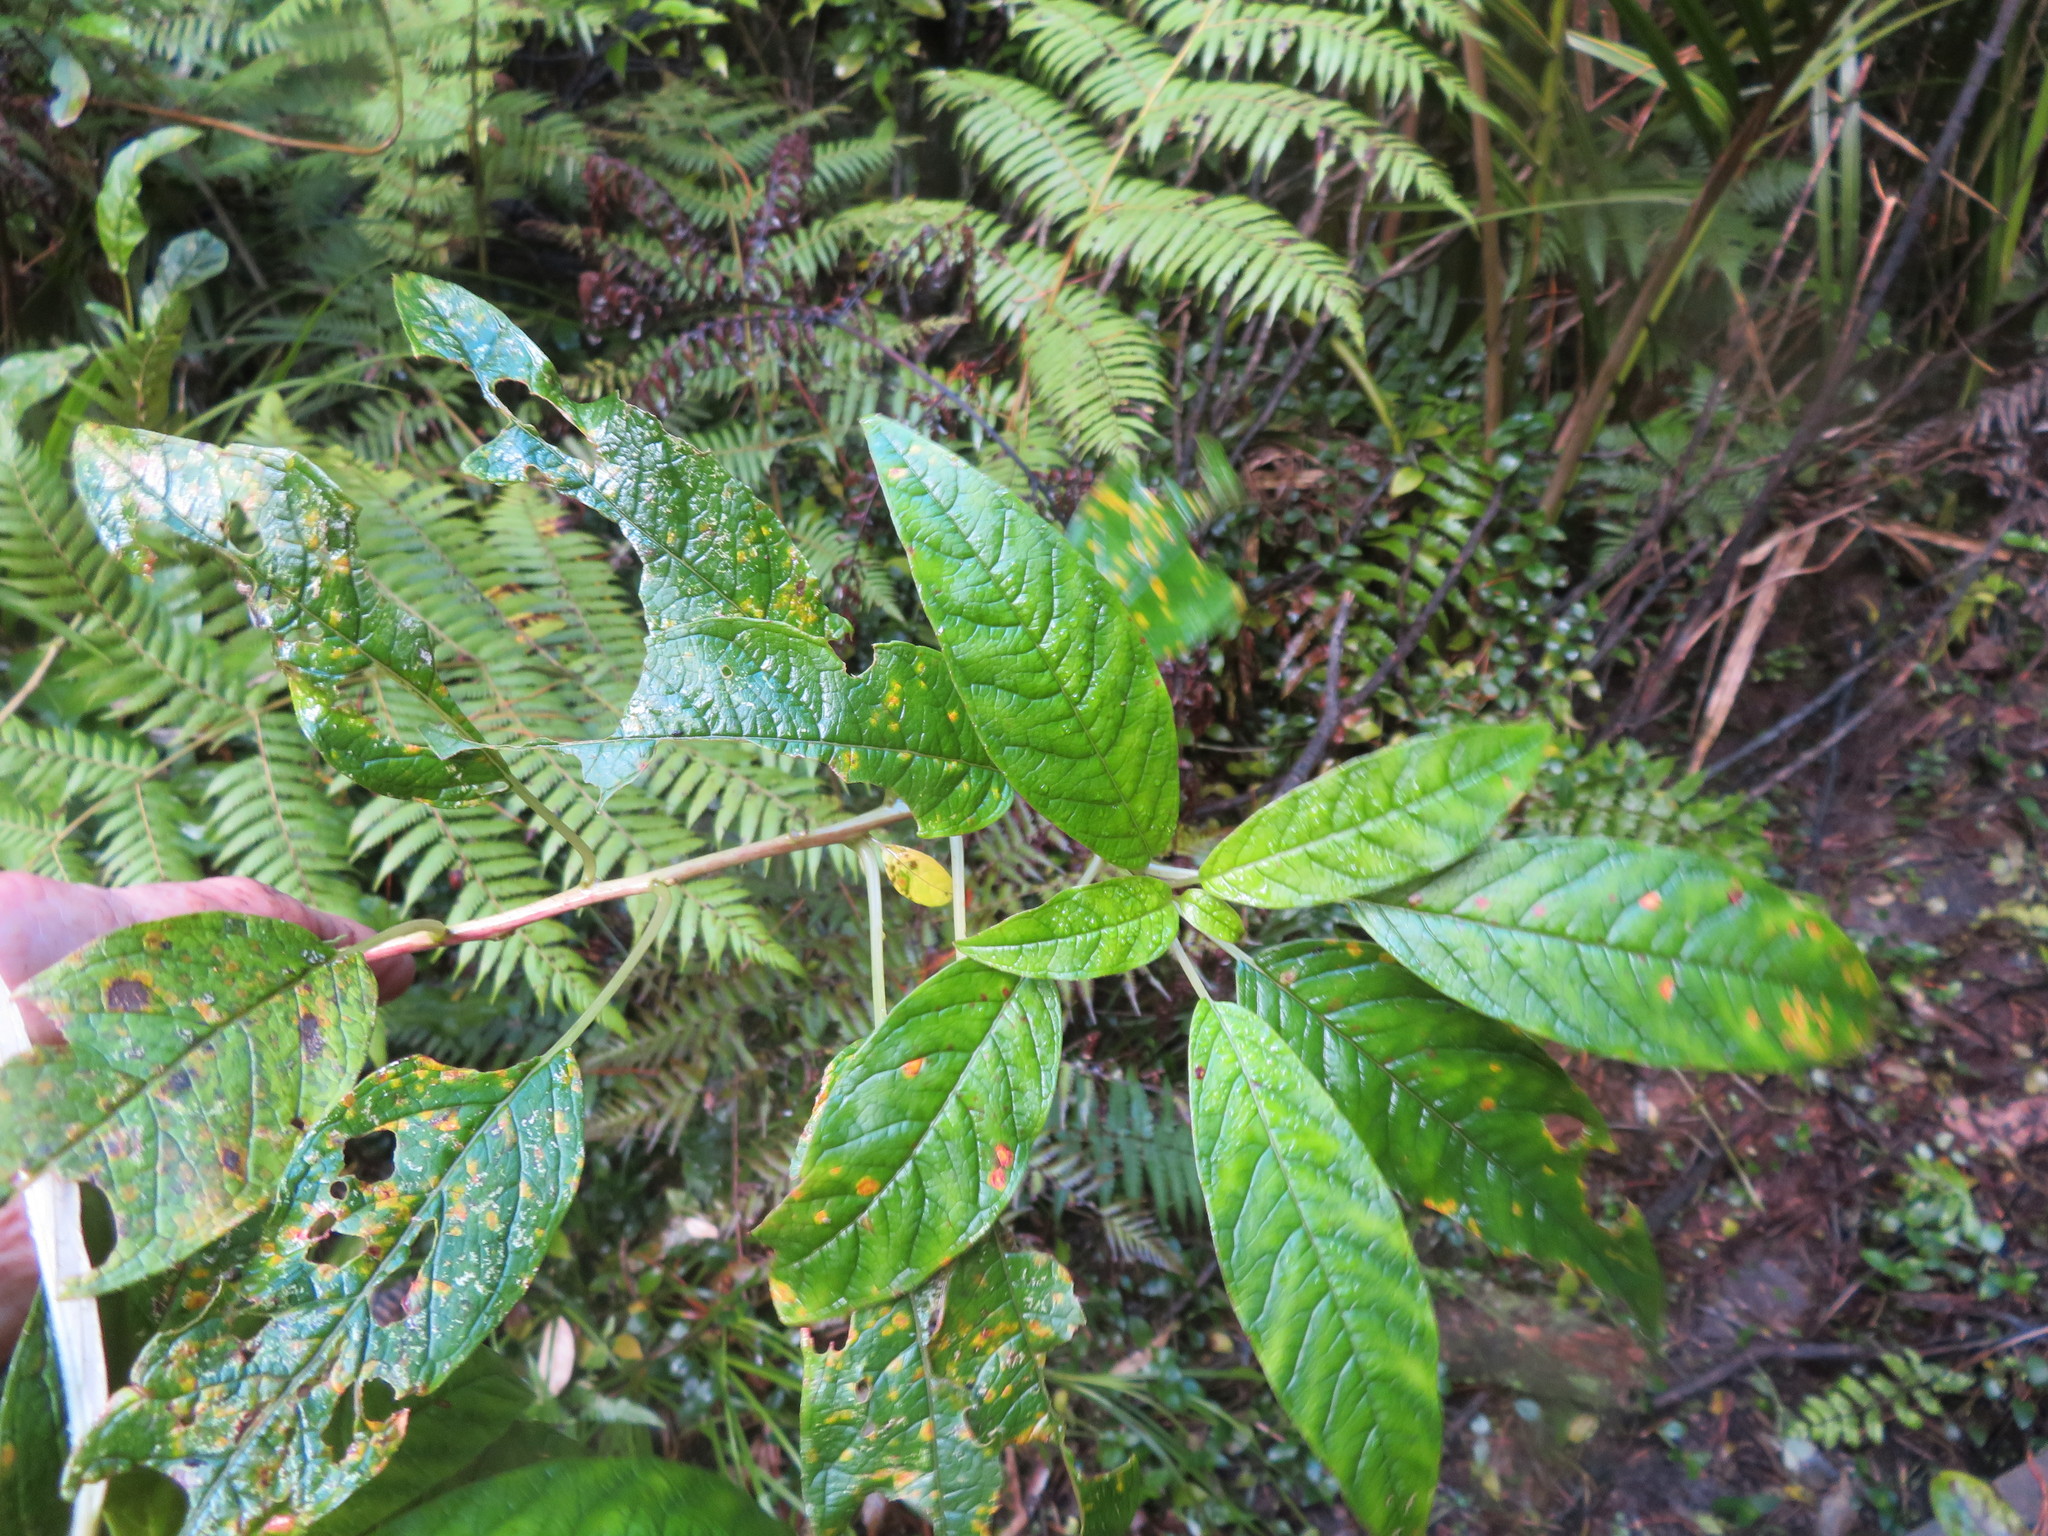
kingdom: Plantae
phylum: Tracheophyta
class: Magnoliopsida
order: Myrtales
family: Onagraceae
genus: Fuchsia
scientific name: Fuchsia excorticata
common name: Tree fuchsia
